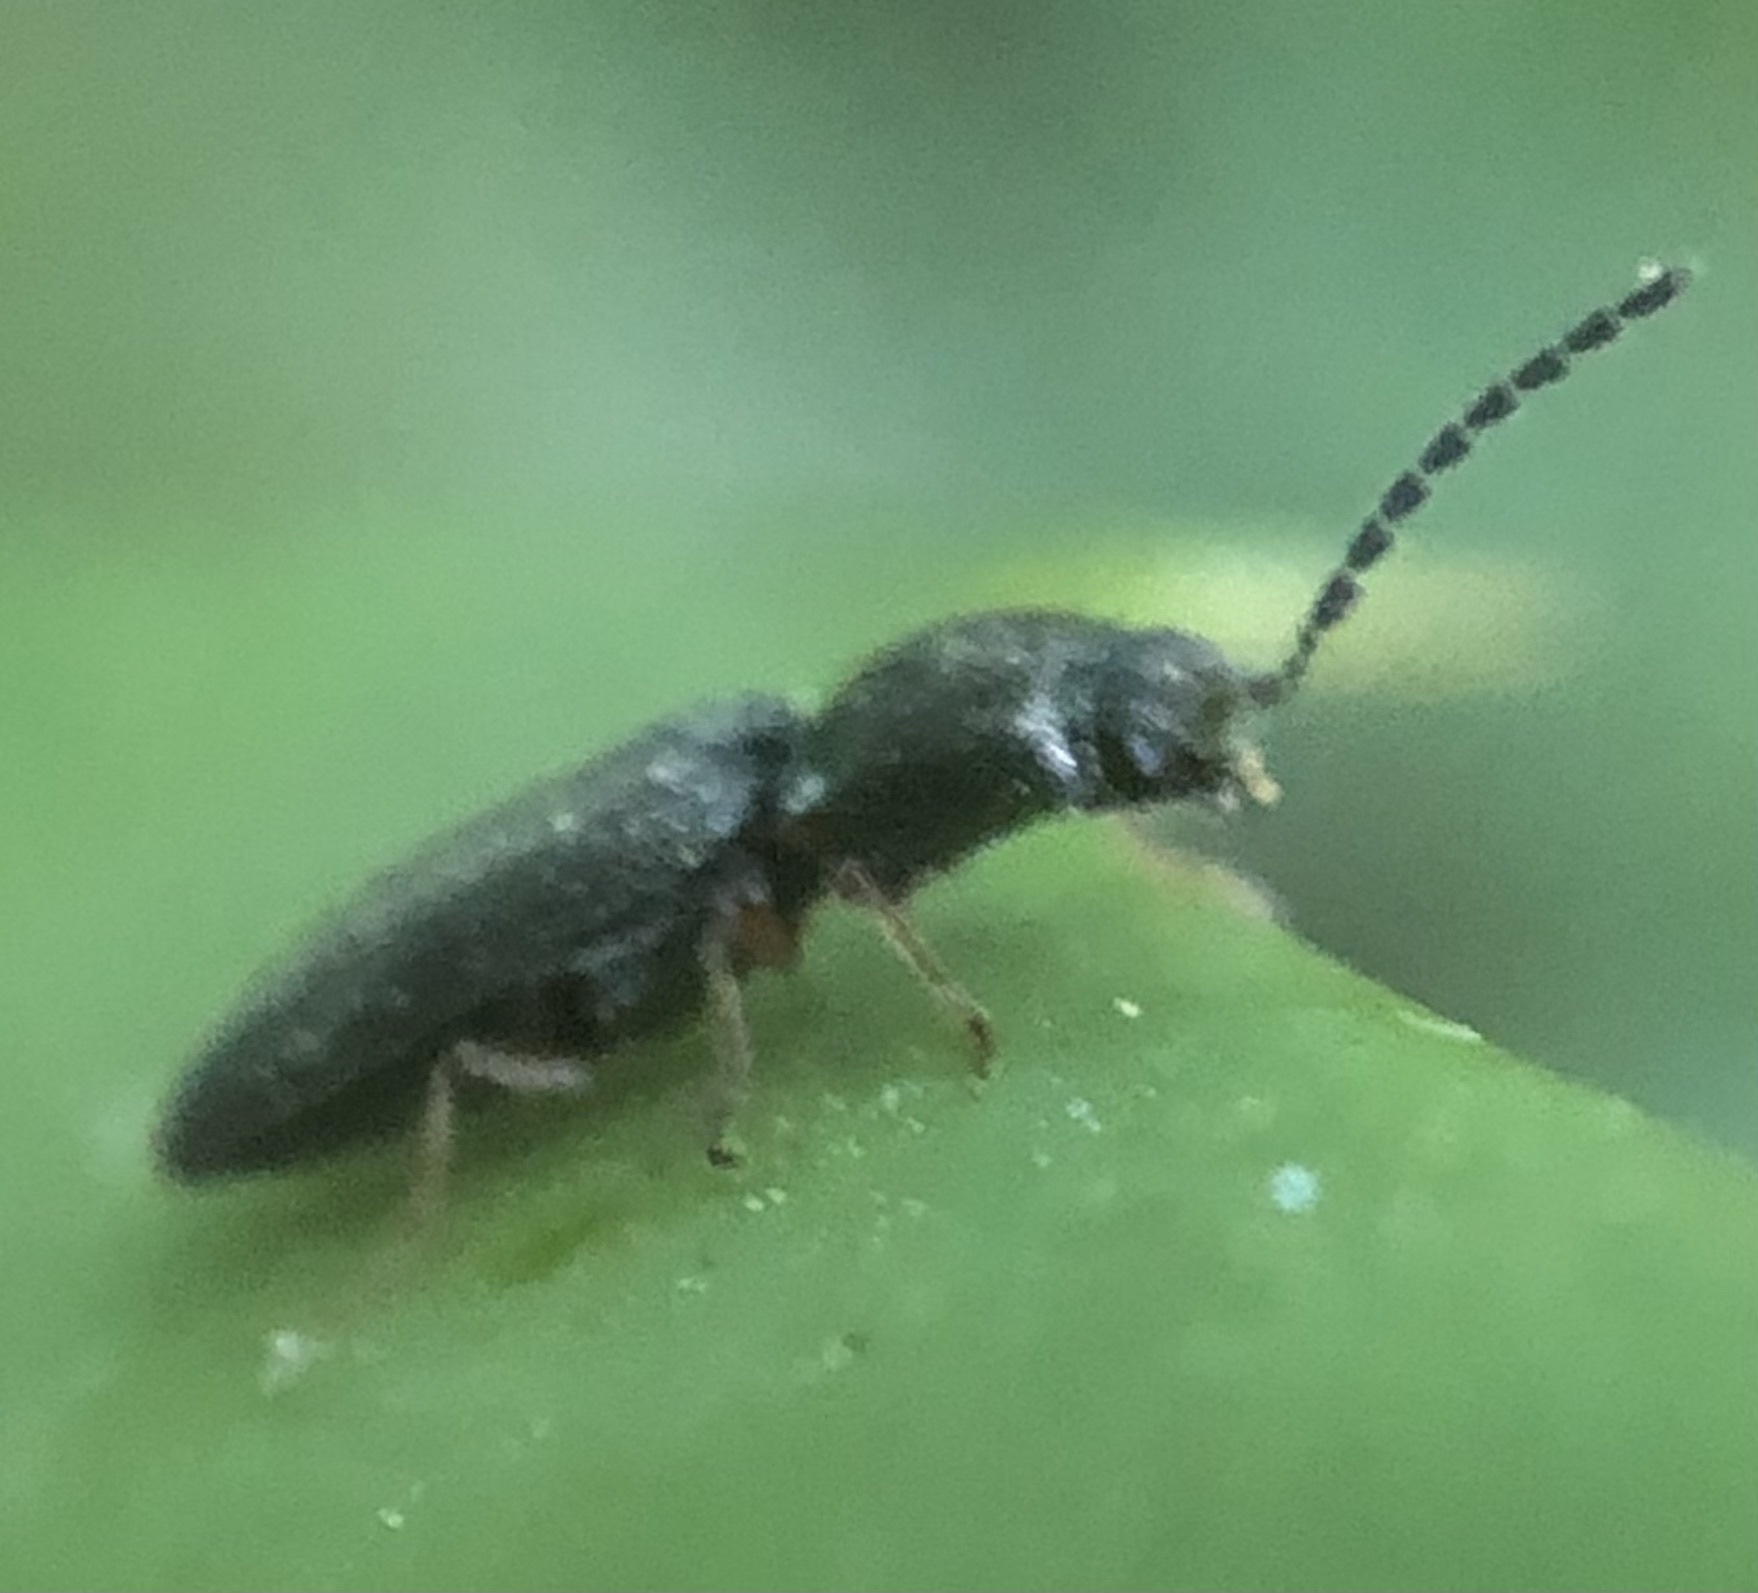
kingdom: Animalia
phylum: Arthropoda
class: Insecta
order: Coleoptera
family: Elateridae
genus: Limonius
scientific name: Limonius basilaris
